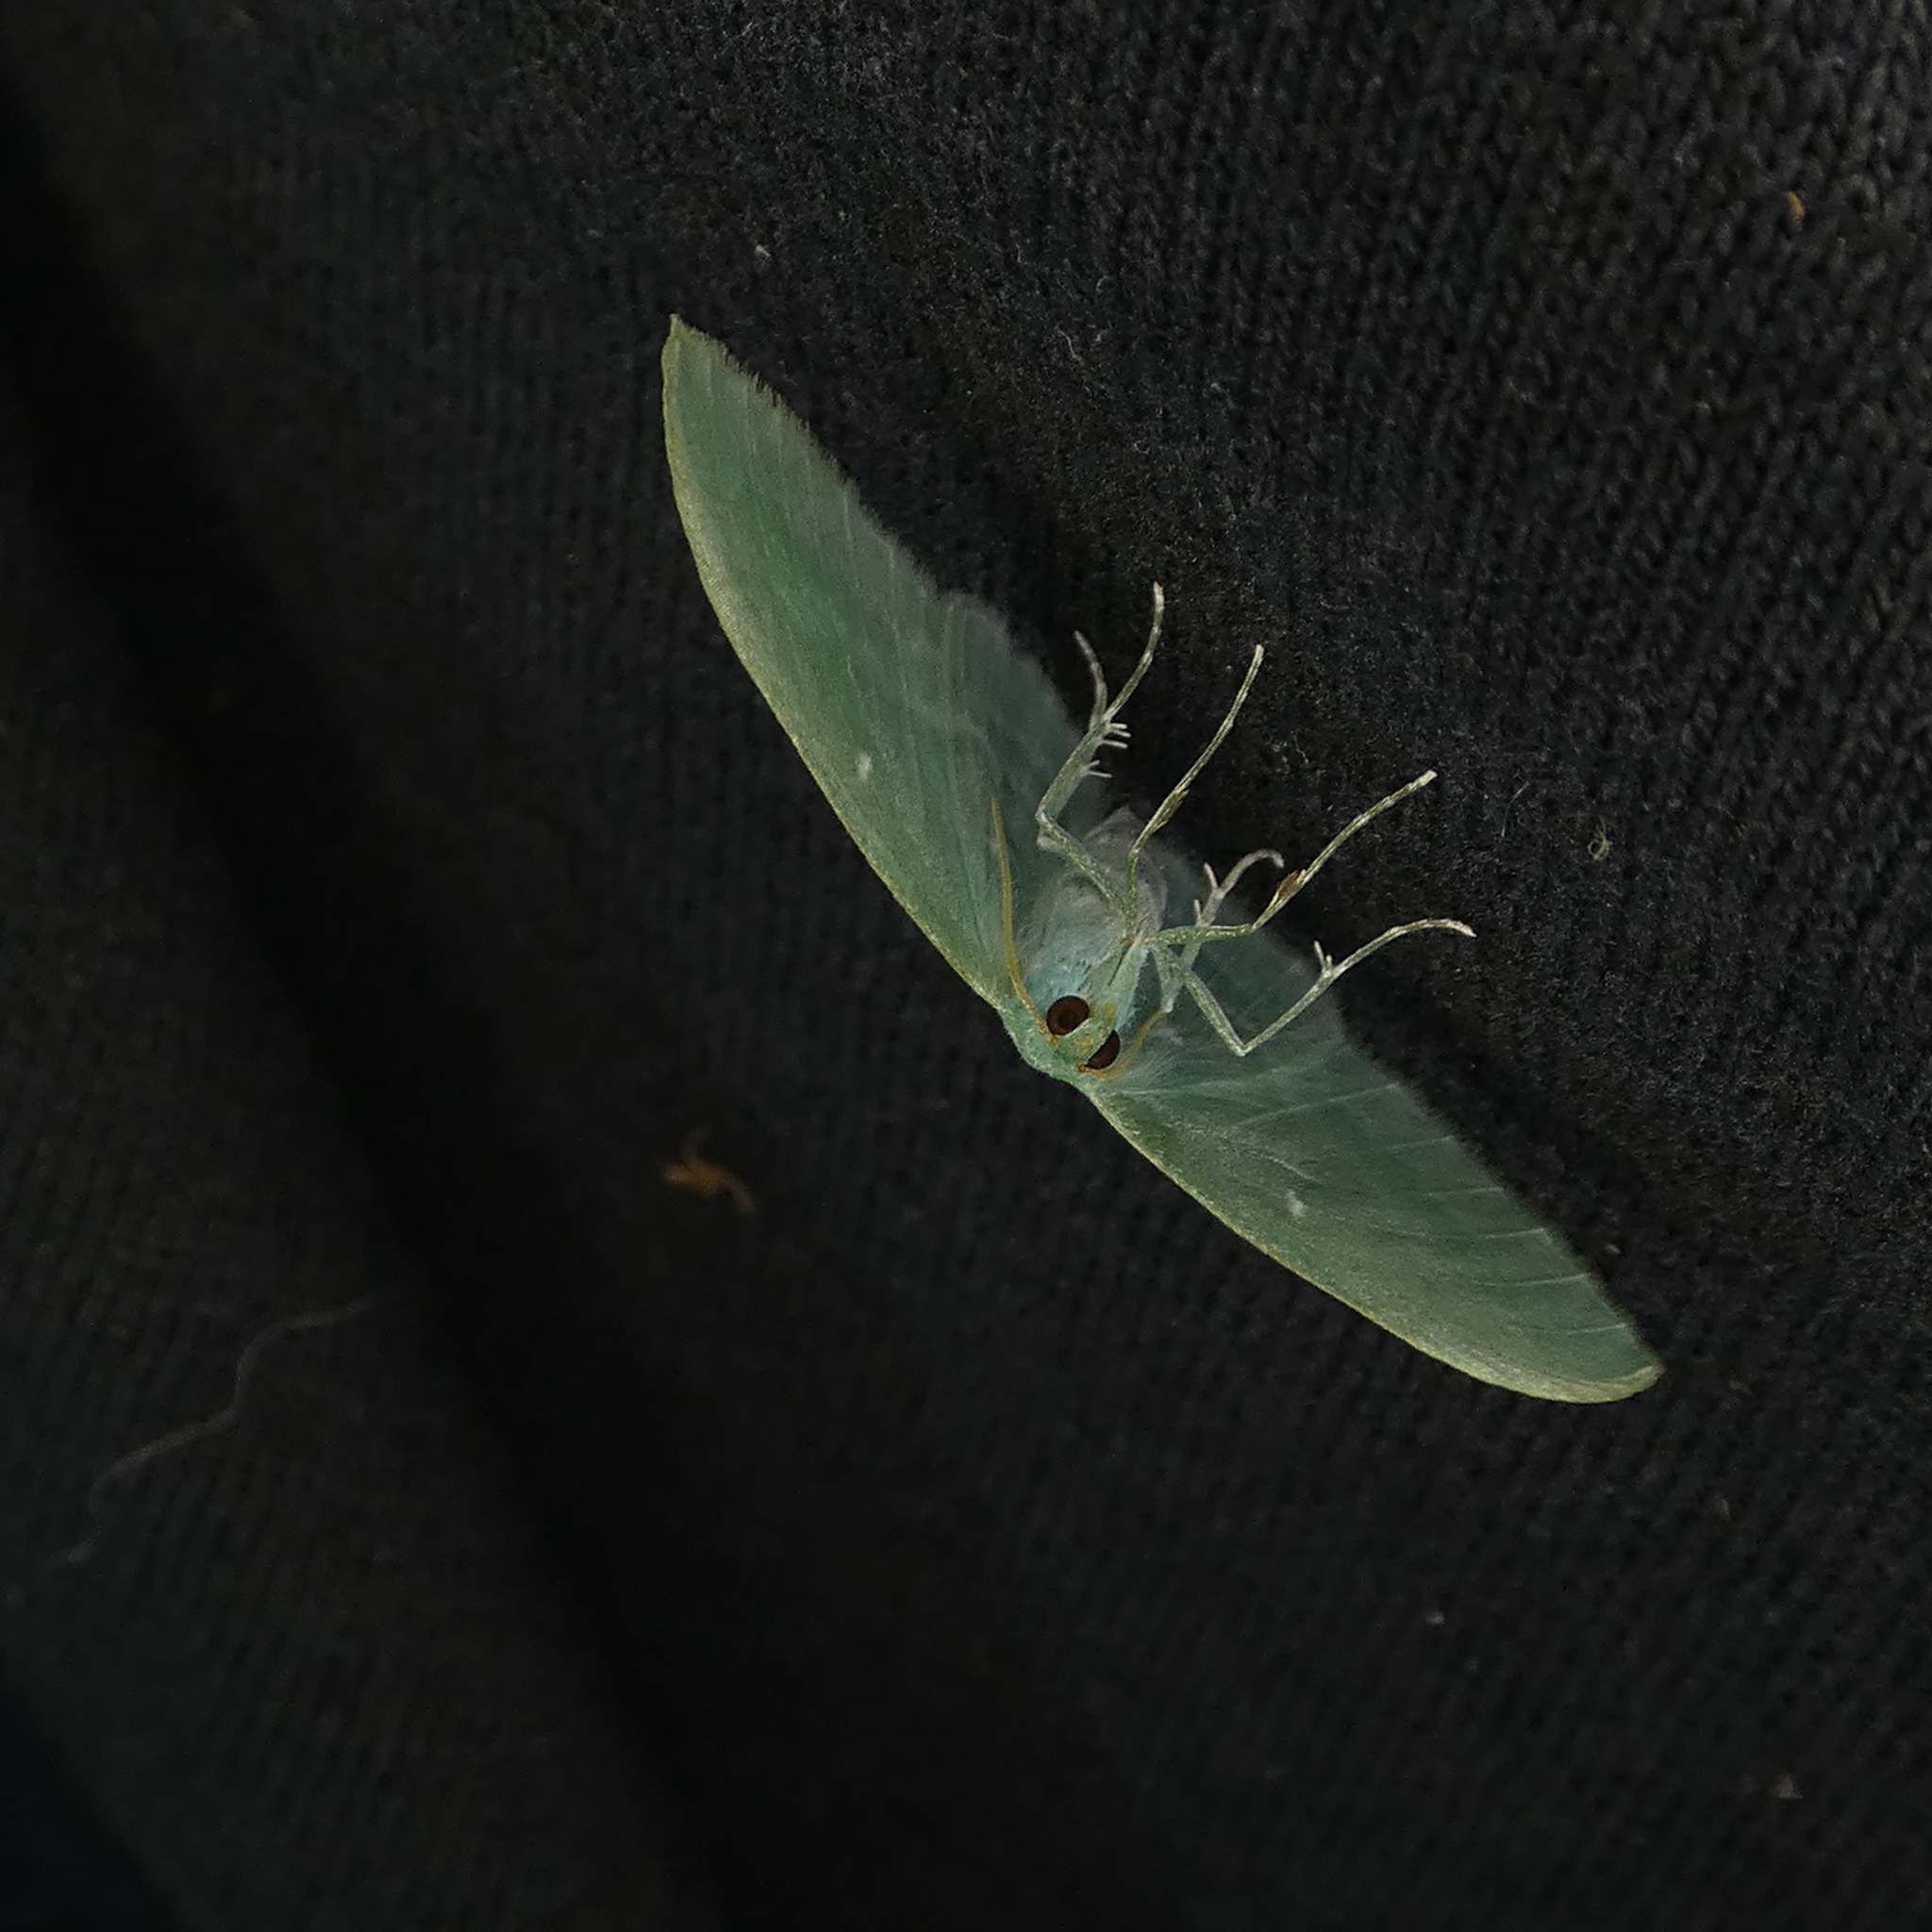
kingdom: Animalia
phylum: Arthropoda
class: Insecta
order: Lepidoptera
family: Geometridae
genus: Dyspteris
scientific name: Dyspteris abortivaria
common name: Bad-wing
